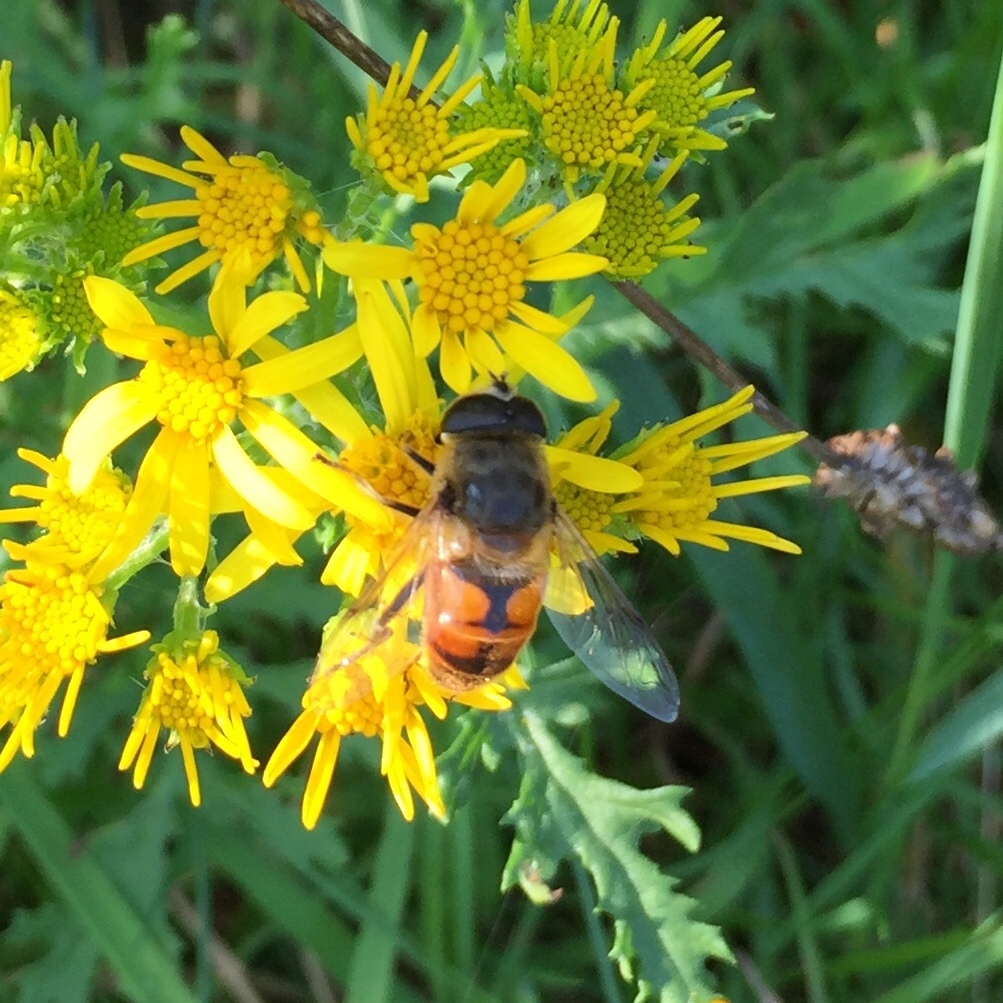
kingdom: Animalia
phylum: Arthropoda
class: Insecta
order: Diptera
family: Syrphidae
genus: Eristalis
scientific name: Eristalis tenax
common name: Drone fly
